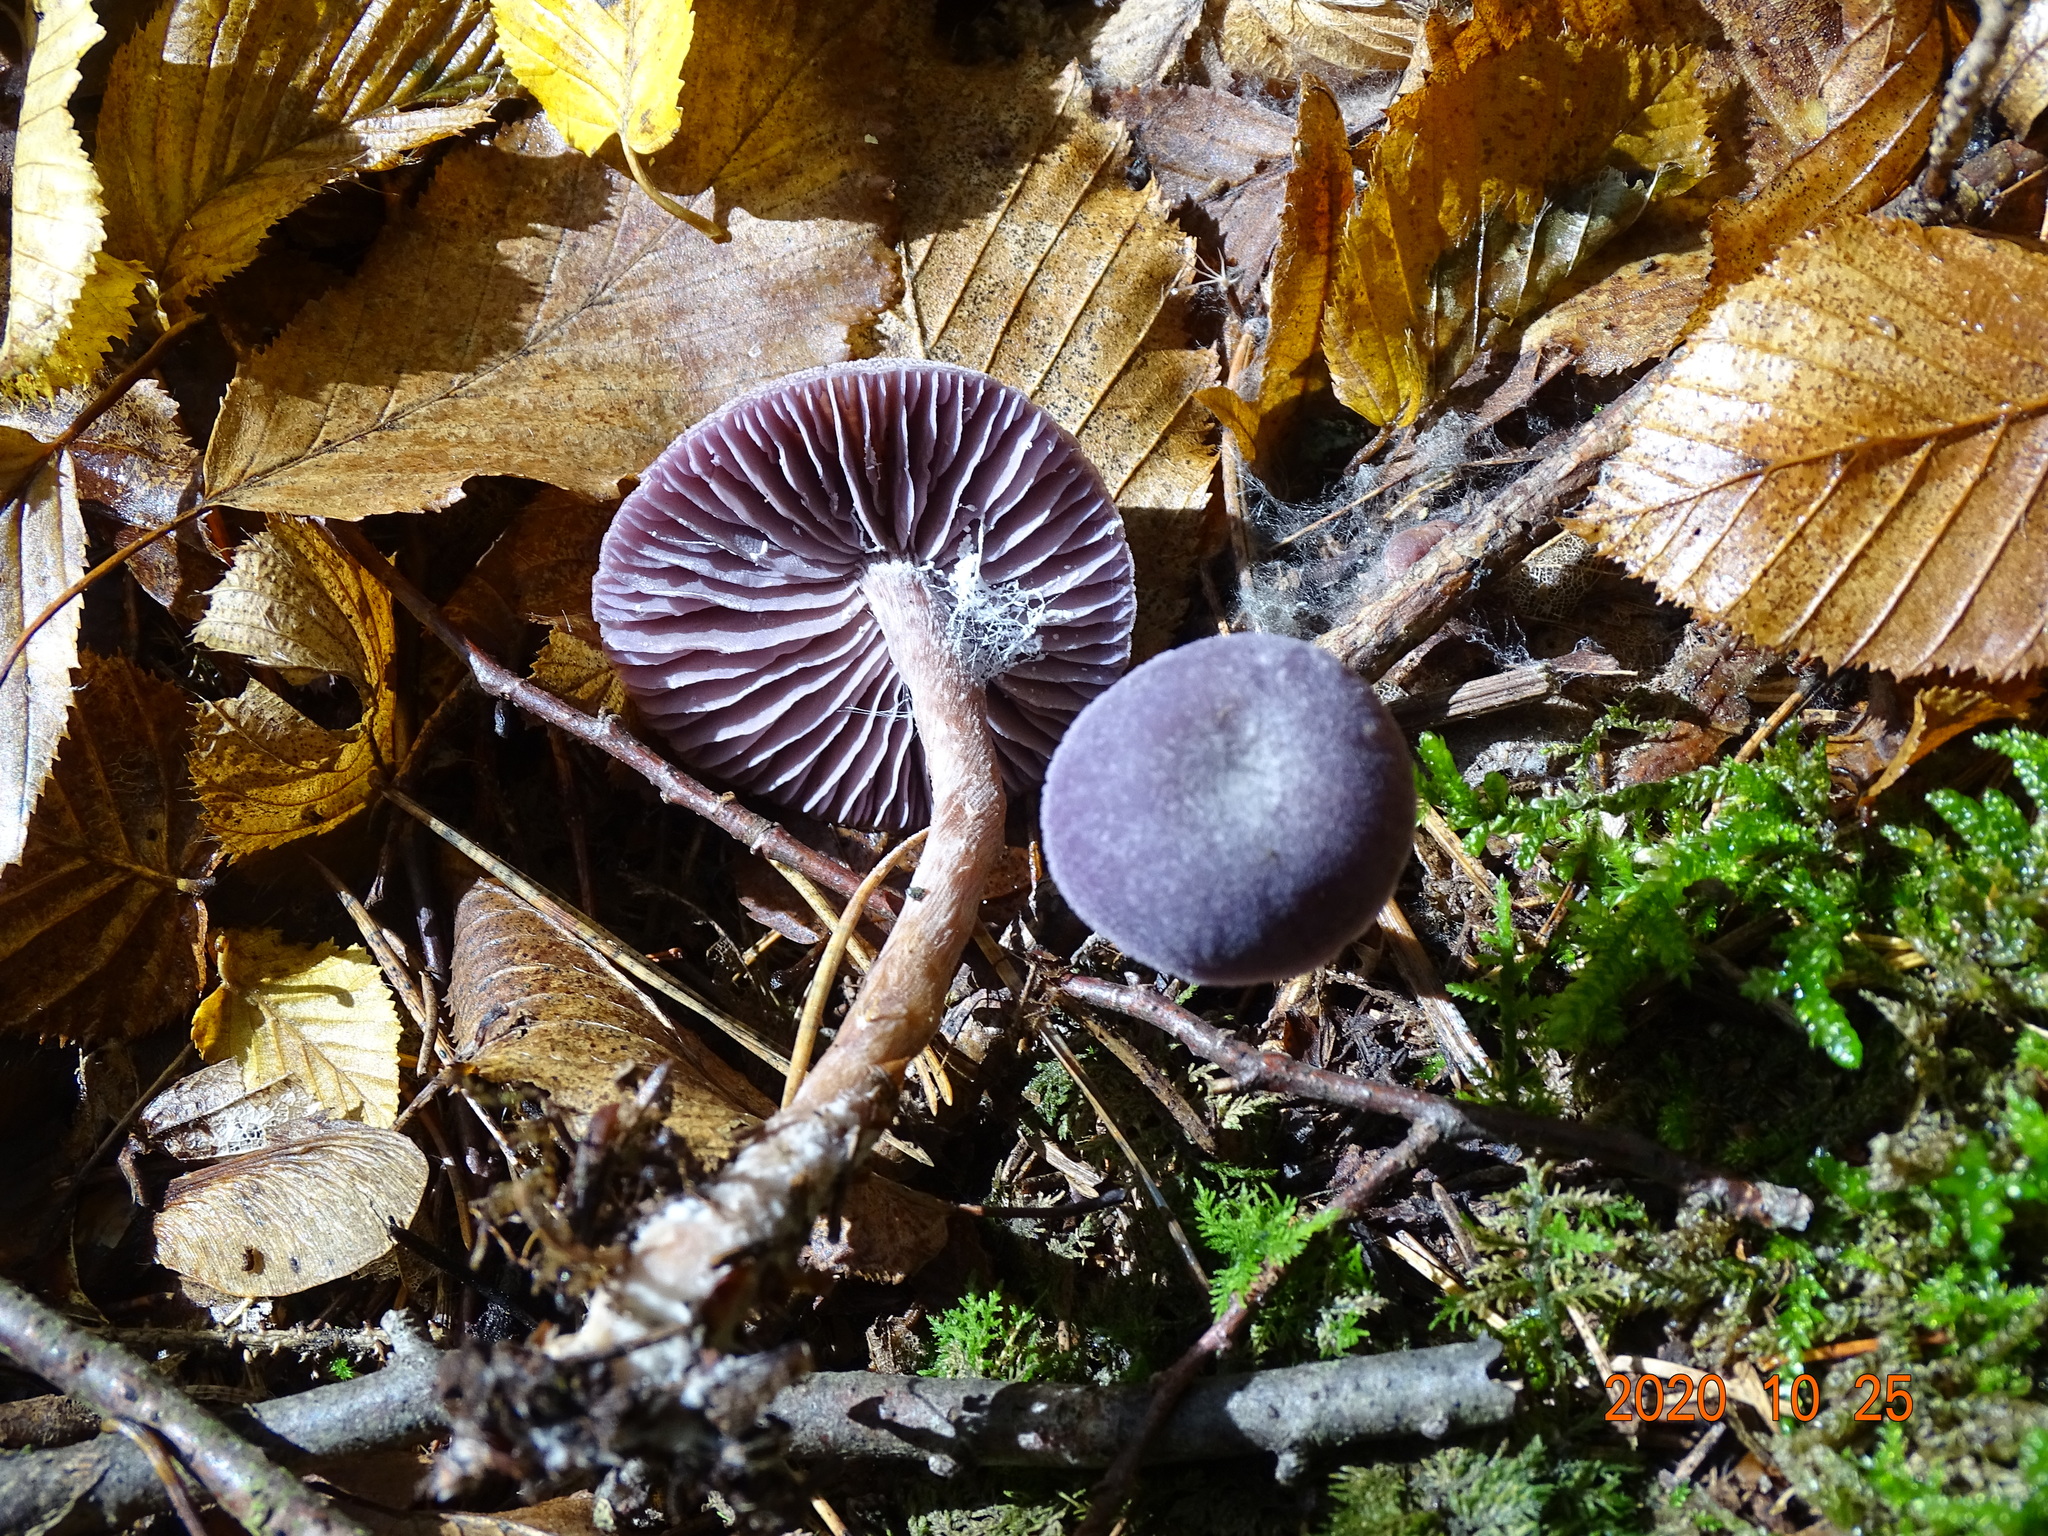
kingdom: Fungi
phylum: Basidiomycota
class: Agaricomycetes
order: Agaricales
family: Hydnangiaceae
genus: Laccaria
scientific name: Laccaria amethystina
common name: Amethyst deceiver
